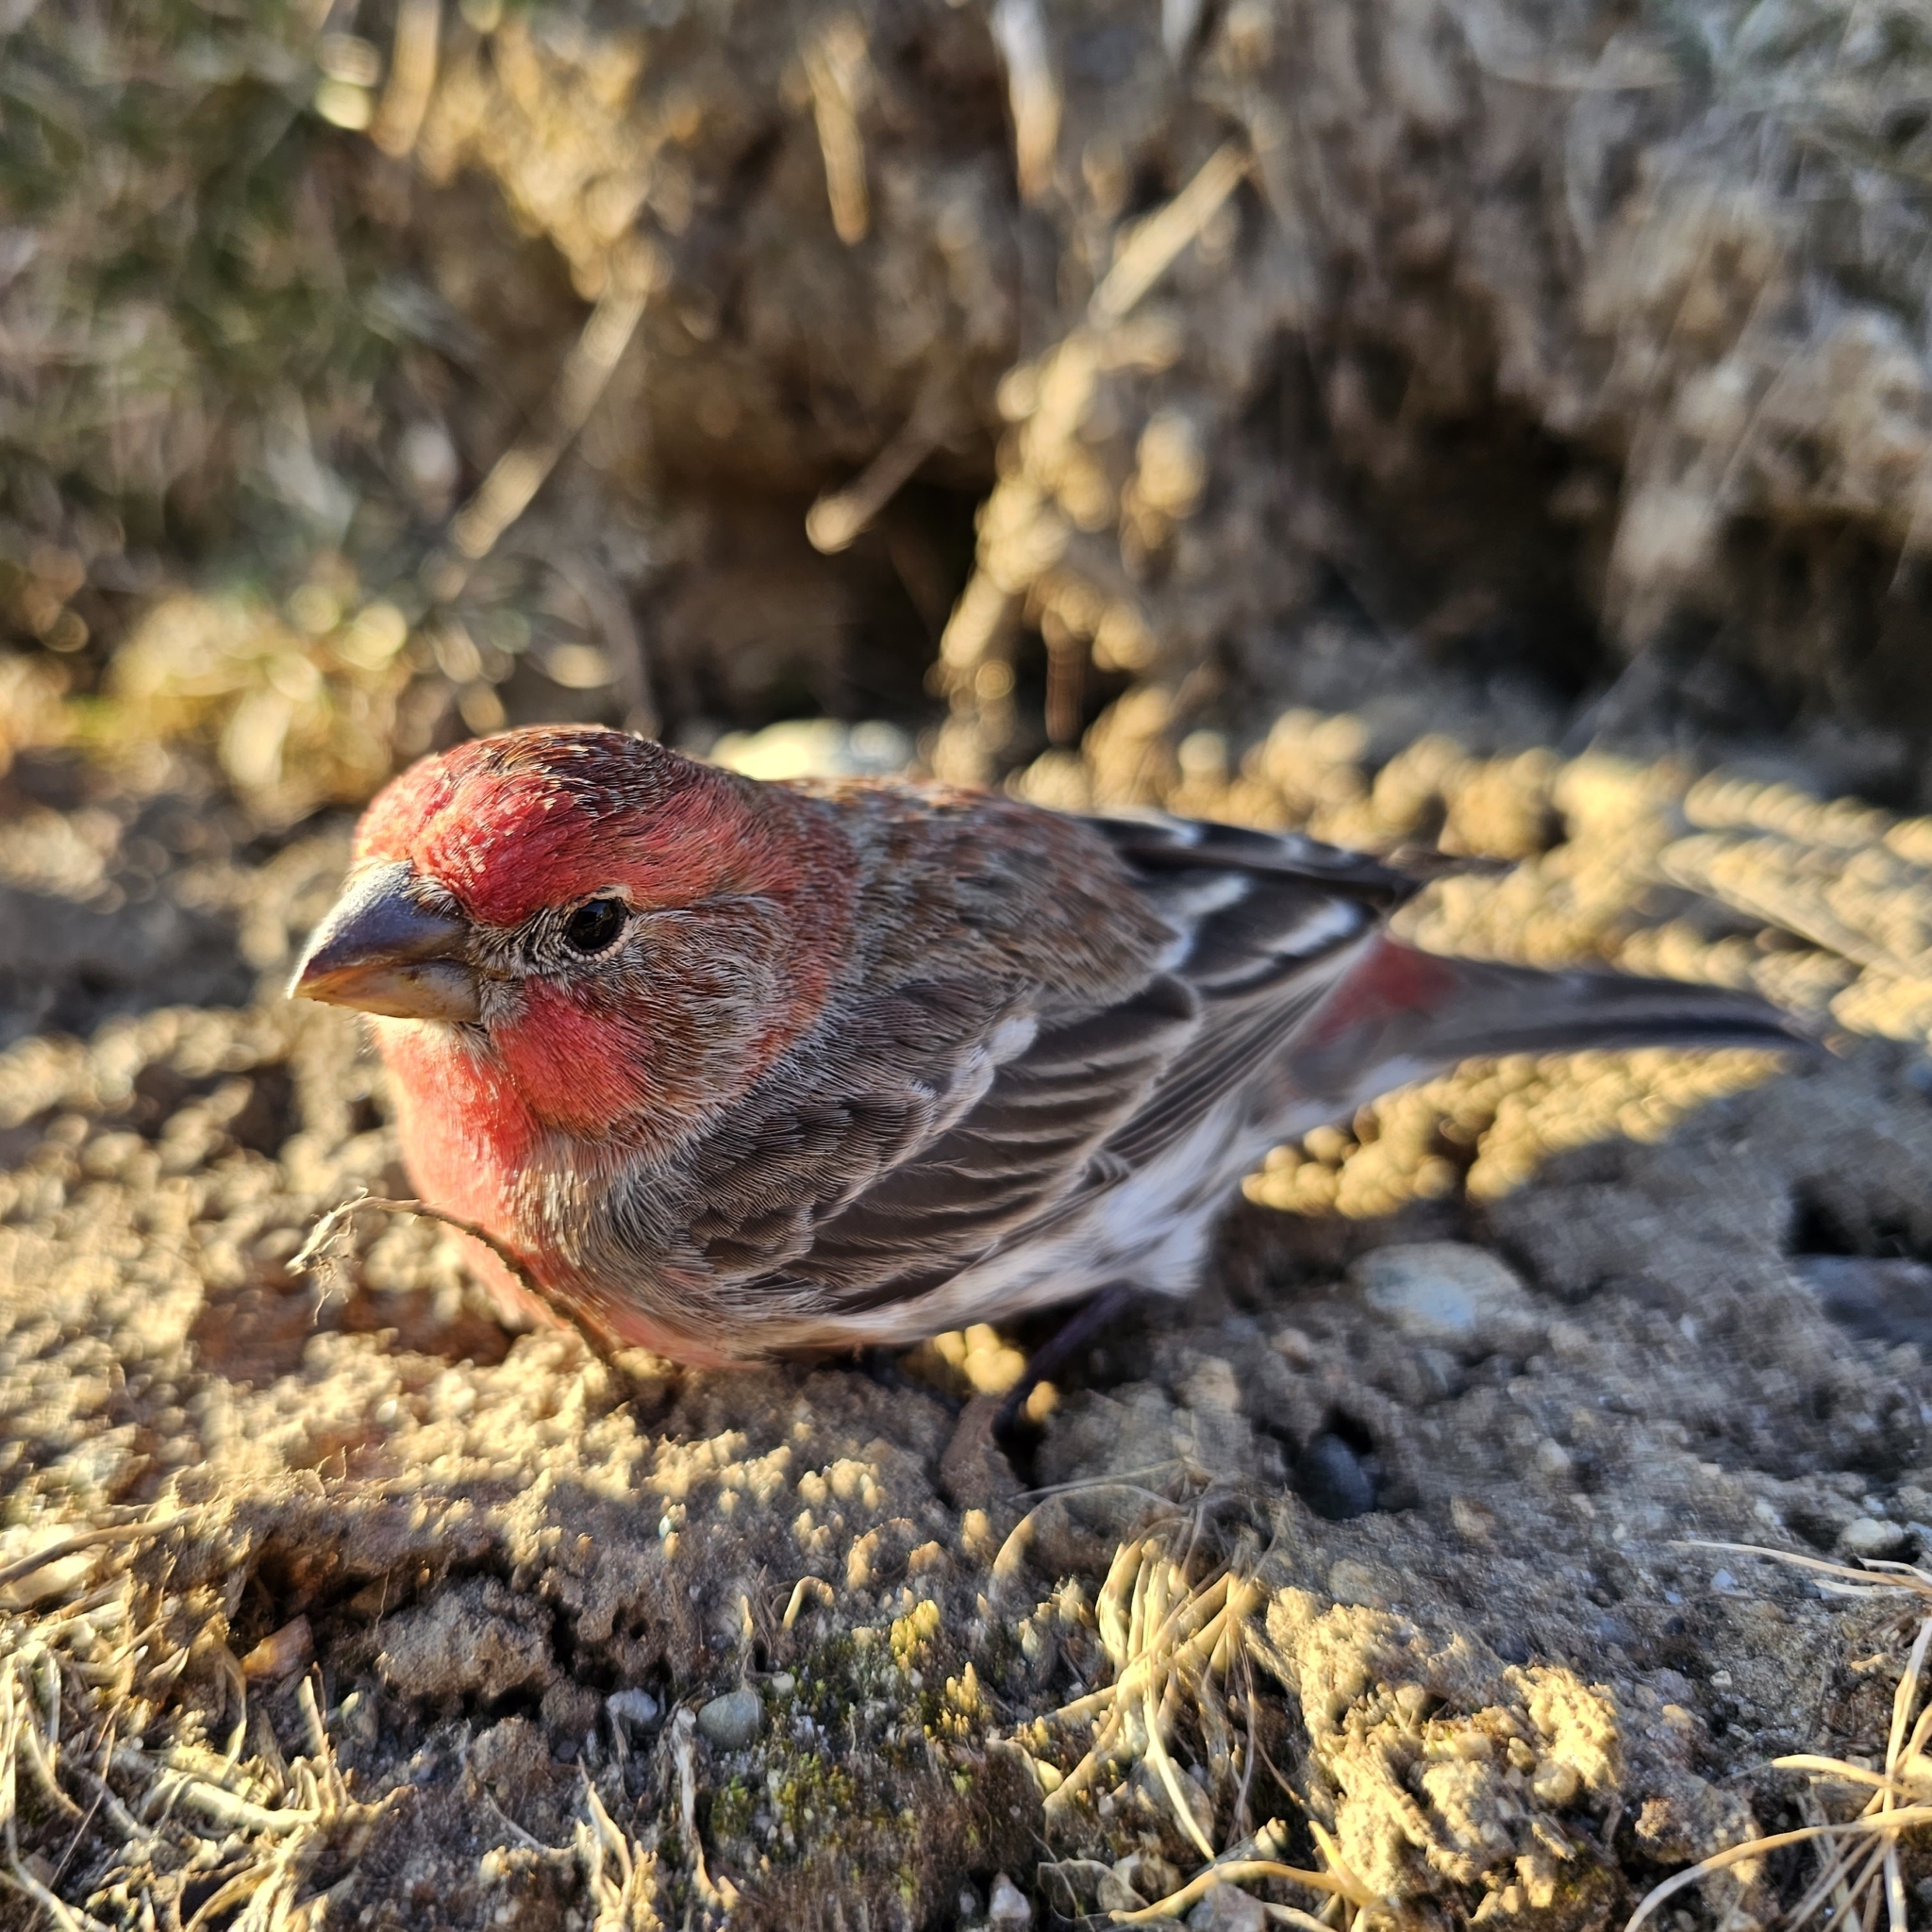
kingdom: Animalia
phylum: Chordata
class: Aves
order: Passeriformes
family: Fringillidae
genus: Haemorhous
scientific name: Haemorhous mexicanus
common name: House finch
